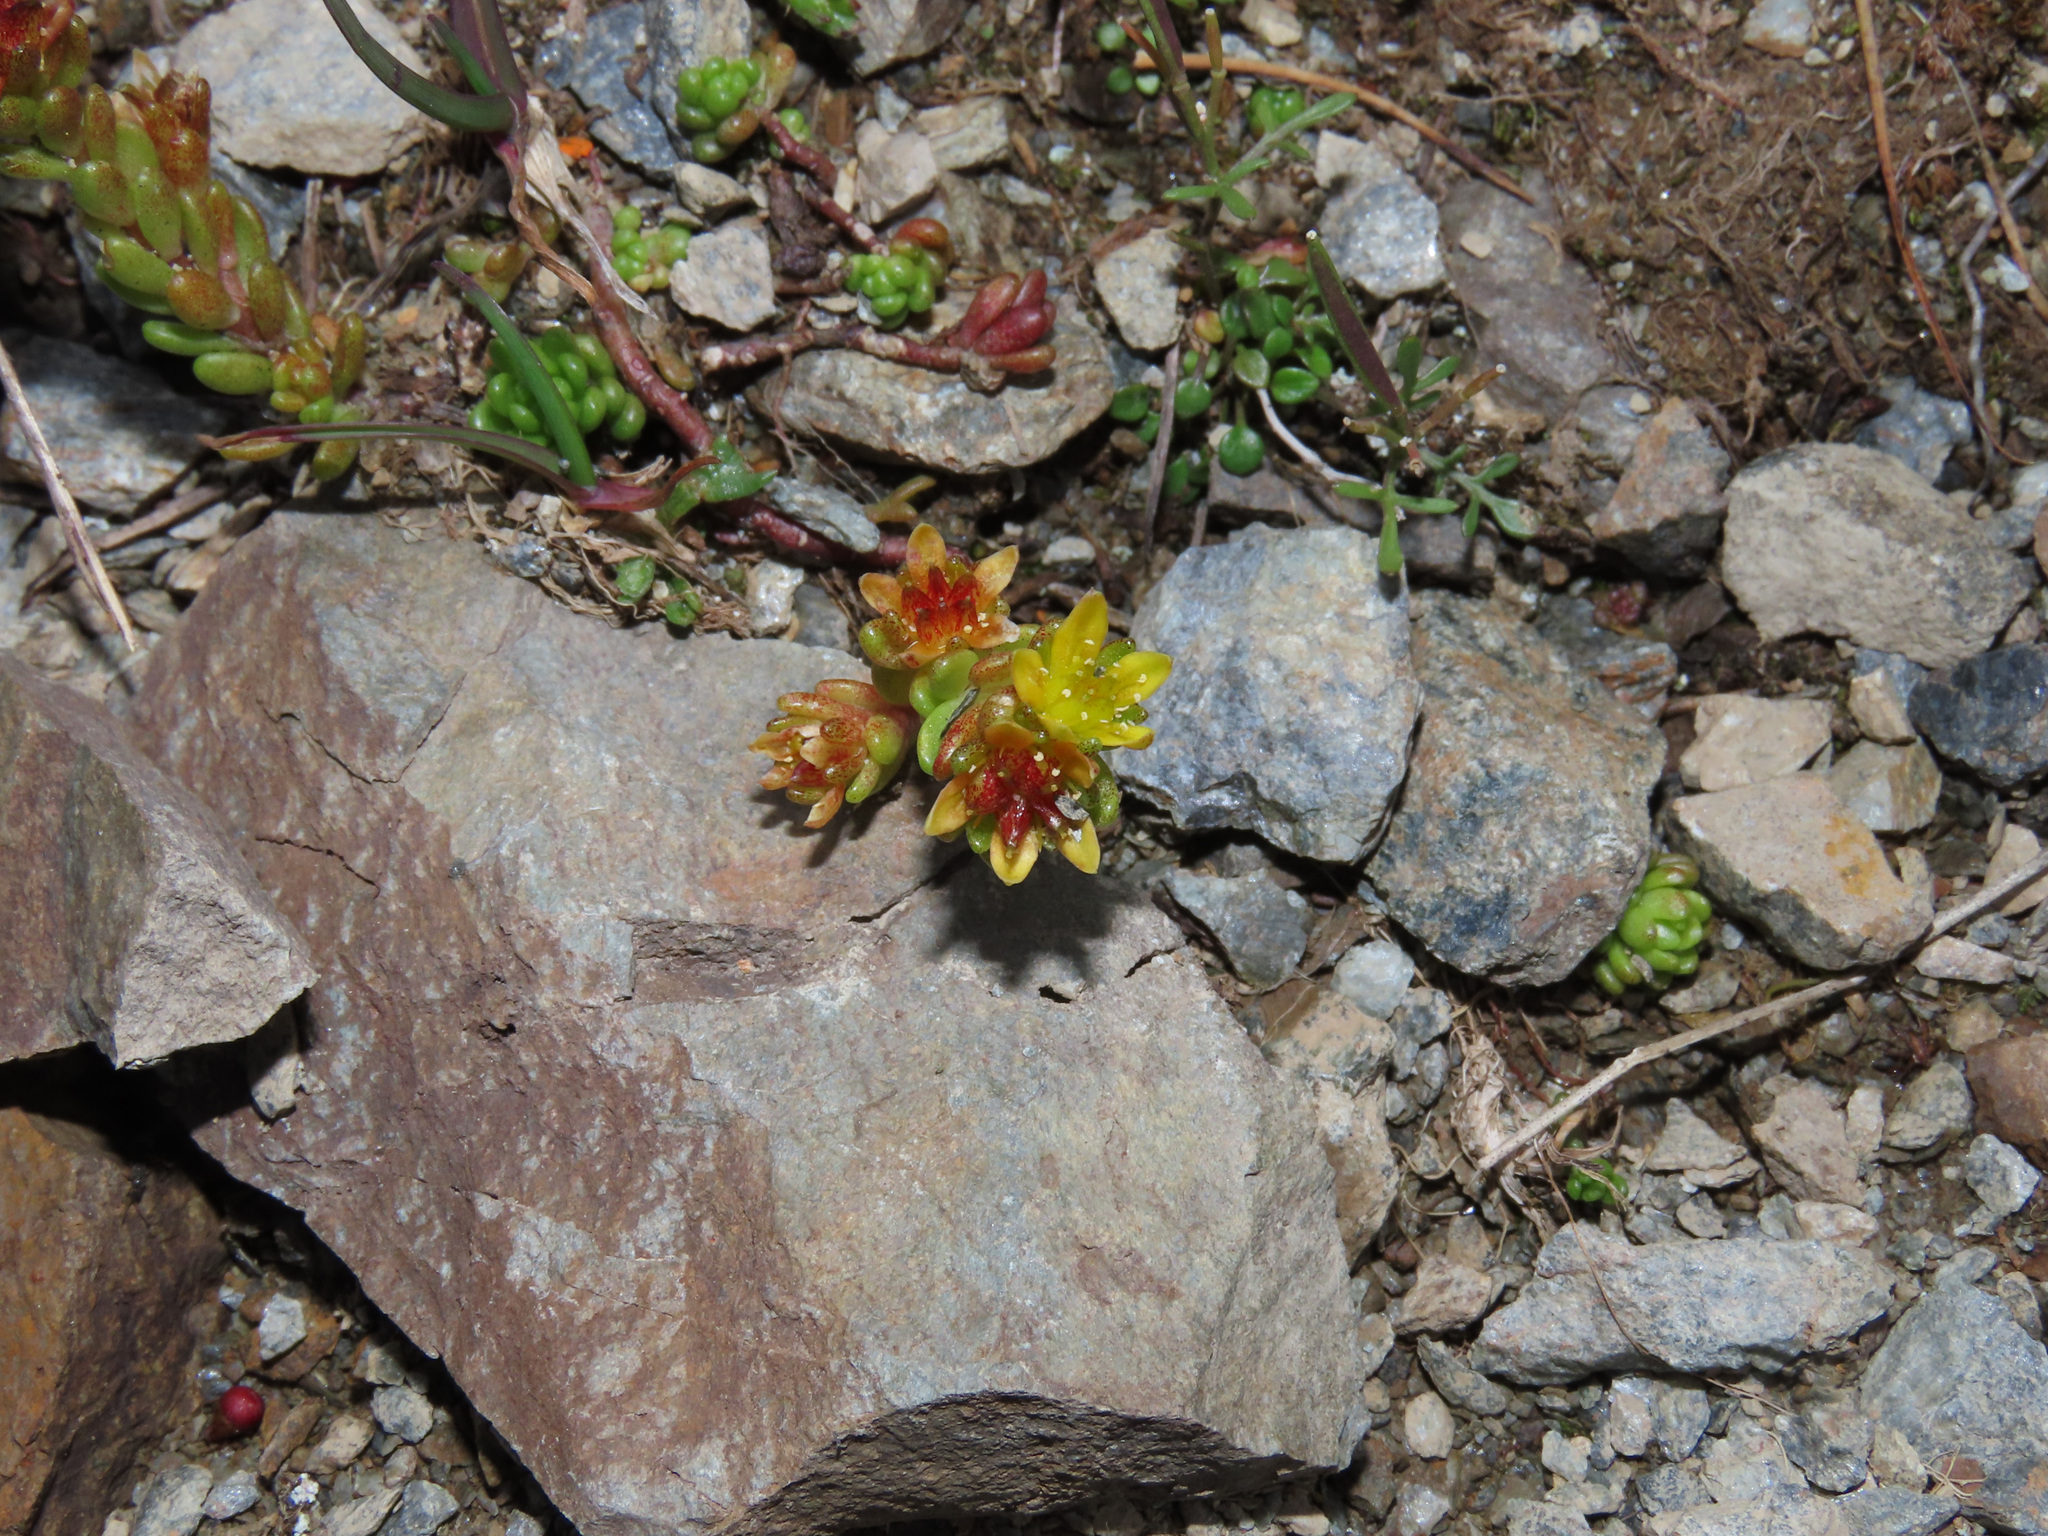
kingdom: Plantae
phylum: Tracheophyta
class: Magnoliopsida
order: Saxifragales
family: Crassulaceae
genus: Sedum
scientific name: Sedum alpestre
